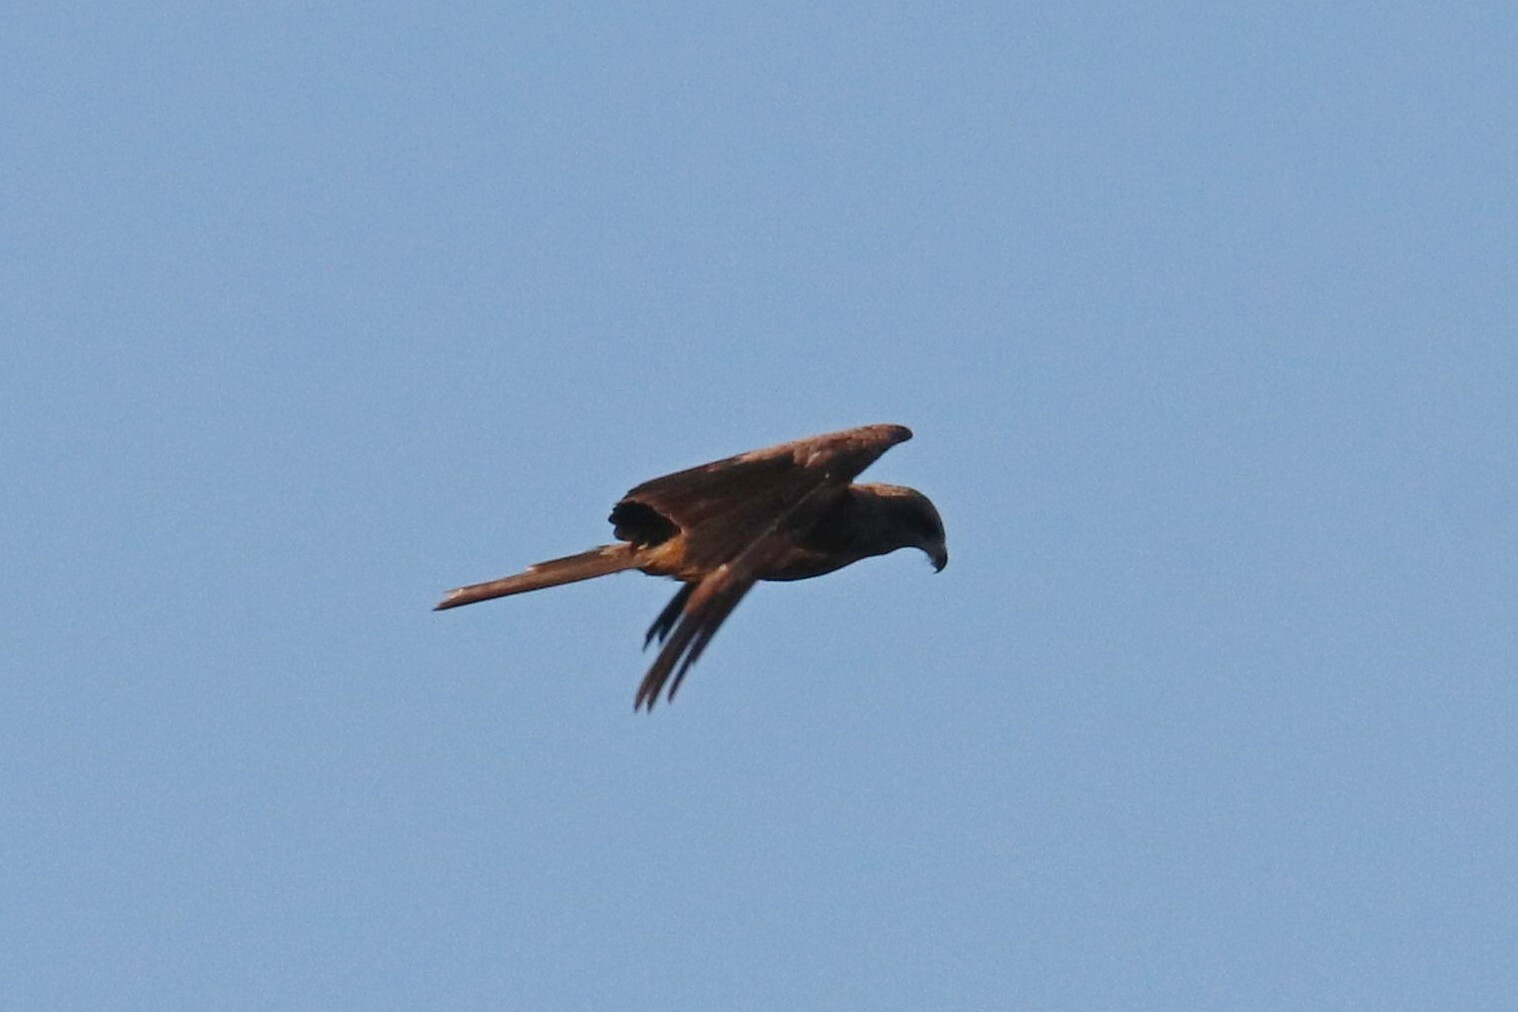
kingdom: Animalia
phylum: Chordata
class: Aves
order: Accipitriformes
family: Accipitridae
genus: Milvus
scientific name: Milvus migrans
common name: Black kite
